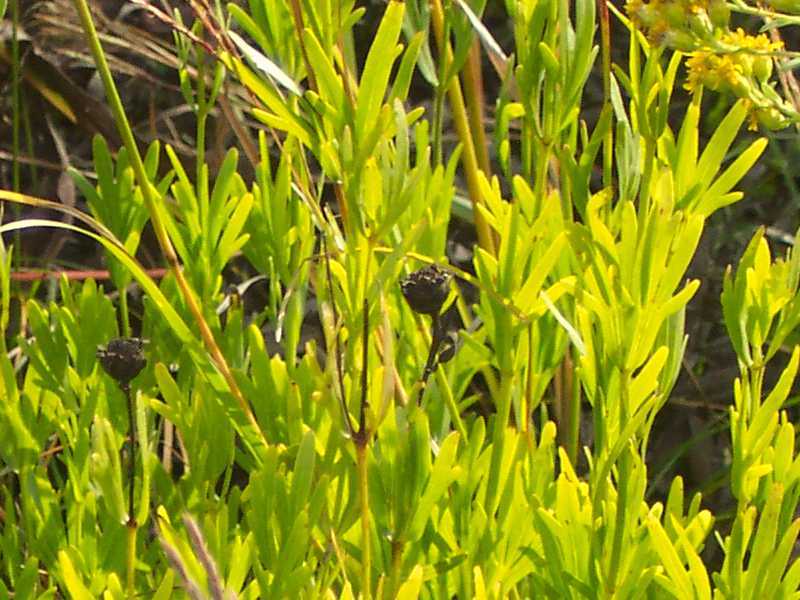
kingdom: Plantae
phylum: Tracheophyta
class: Magnoliopsida
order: Asterales
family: Asteraceae
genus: Coreopsis
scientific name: Coreopsis palmata
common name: Prairie coreopsis
